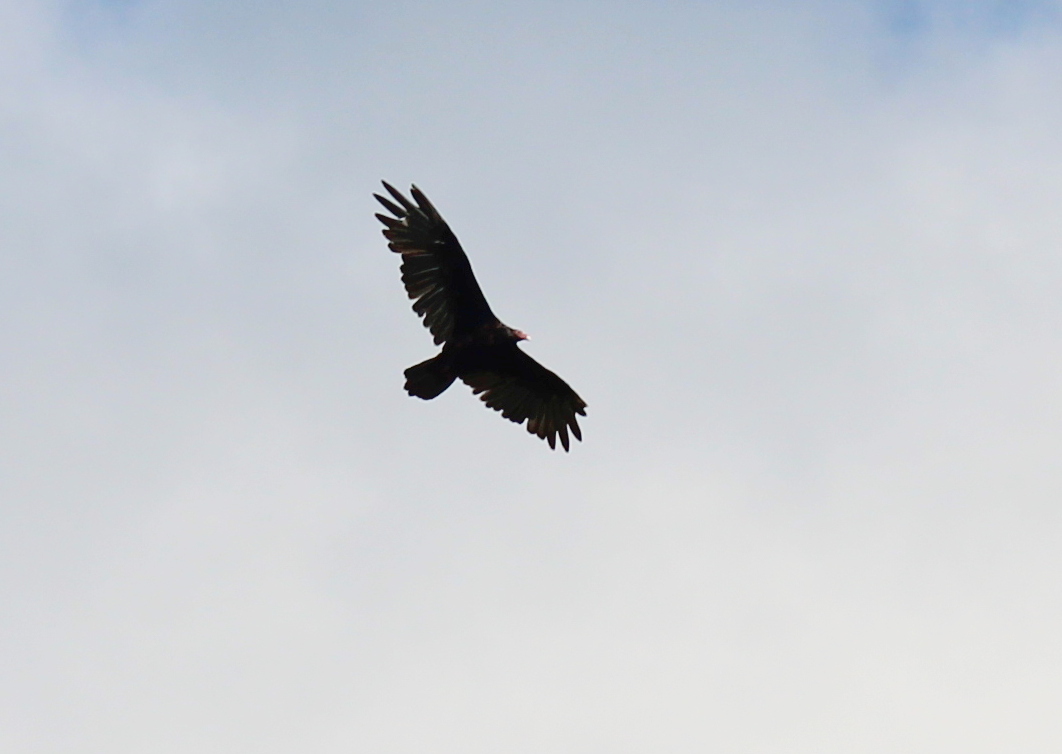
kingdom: Animalia
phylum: Chordata
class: Aves
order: Accipitriformes
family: Cathartidae
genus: Cathartes
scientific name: Cathartes aura
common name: Turkey vulture
